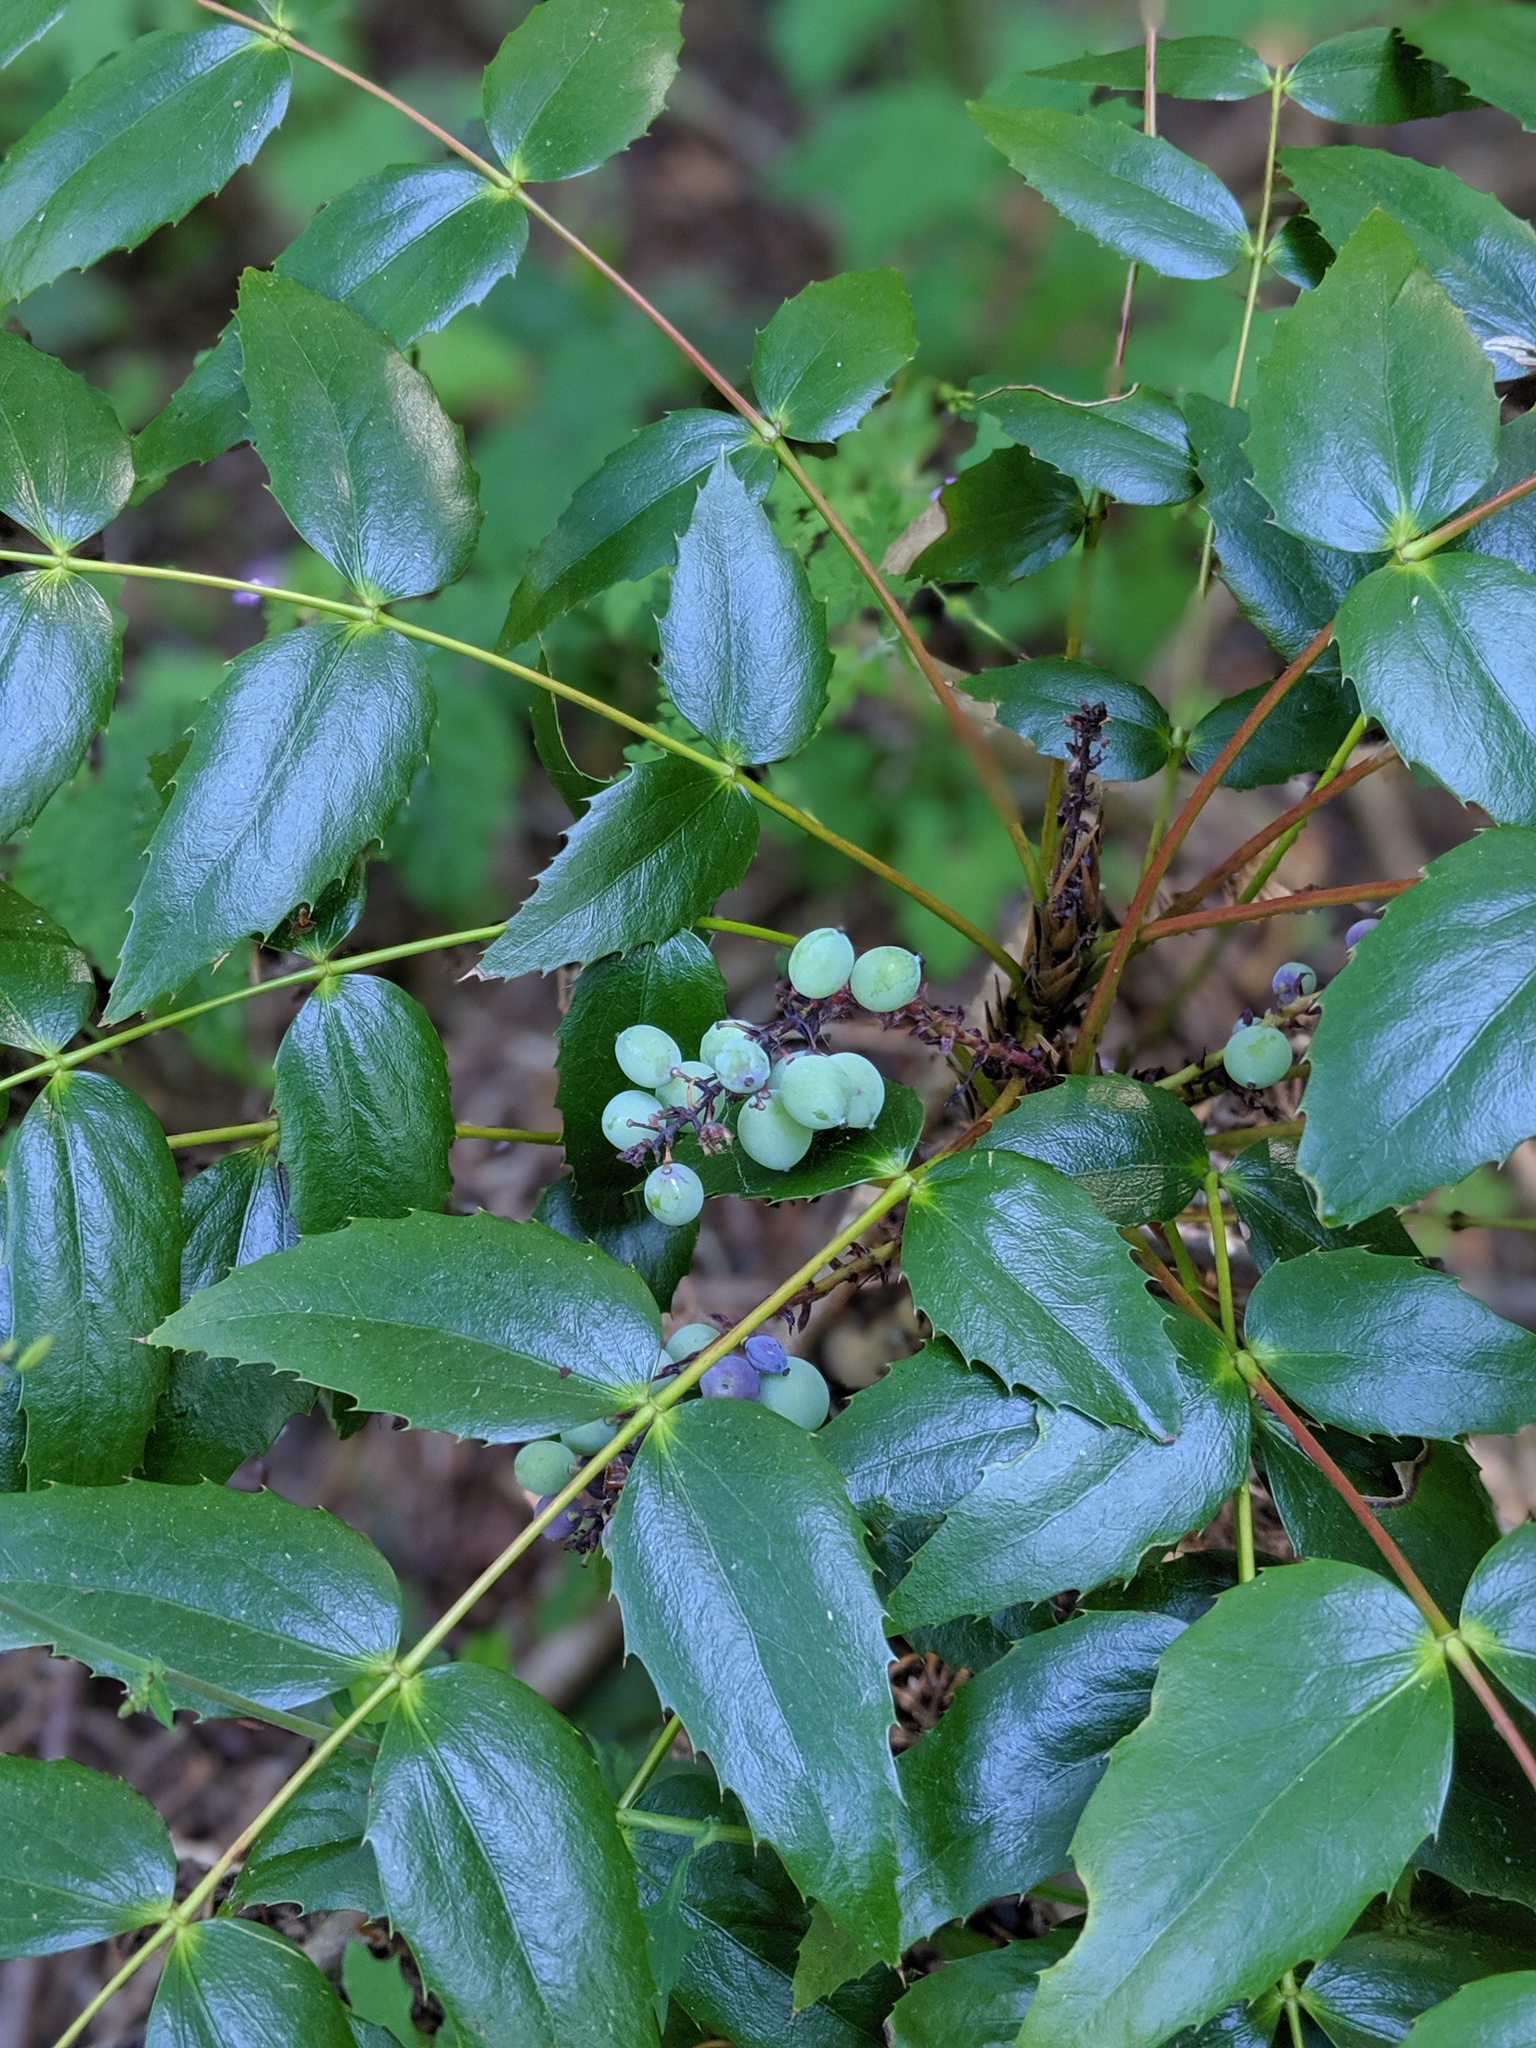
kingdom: Plantae
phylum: Tracheophyta
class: Magnoliopsida
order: Ranunculales
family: Berberidaceae
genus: Mahonia
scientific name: Mahonia nervosa
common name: Cascade oregon-grape
